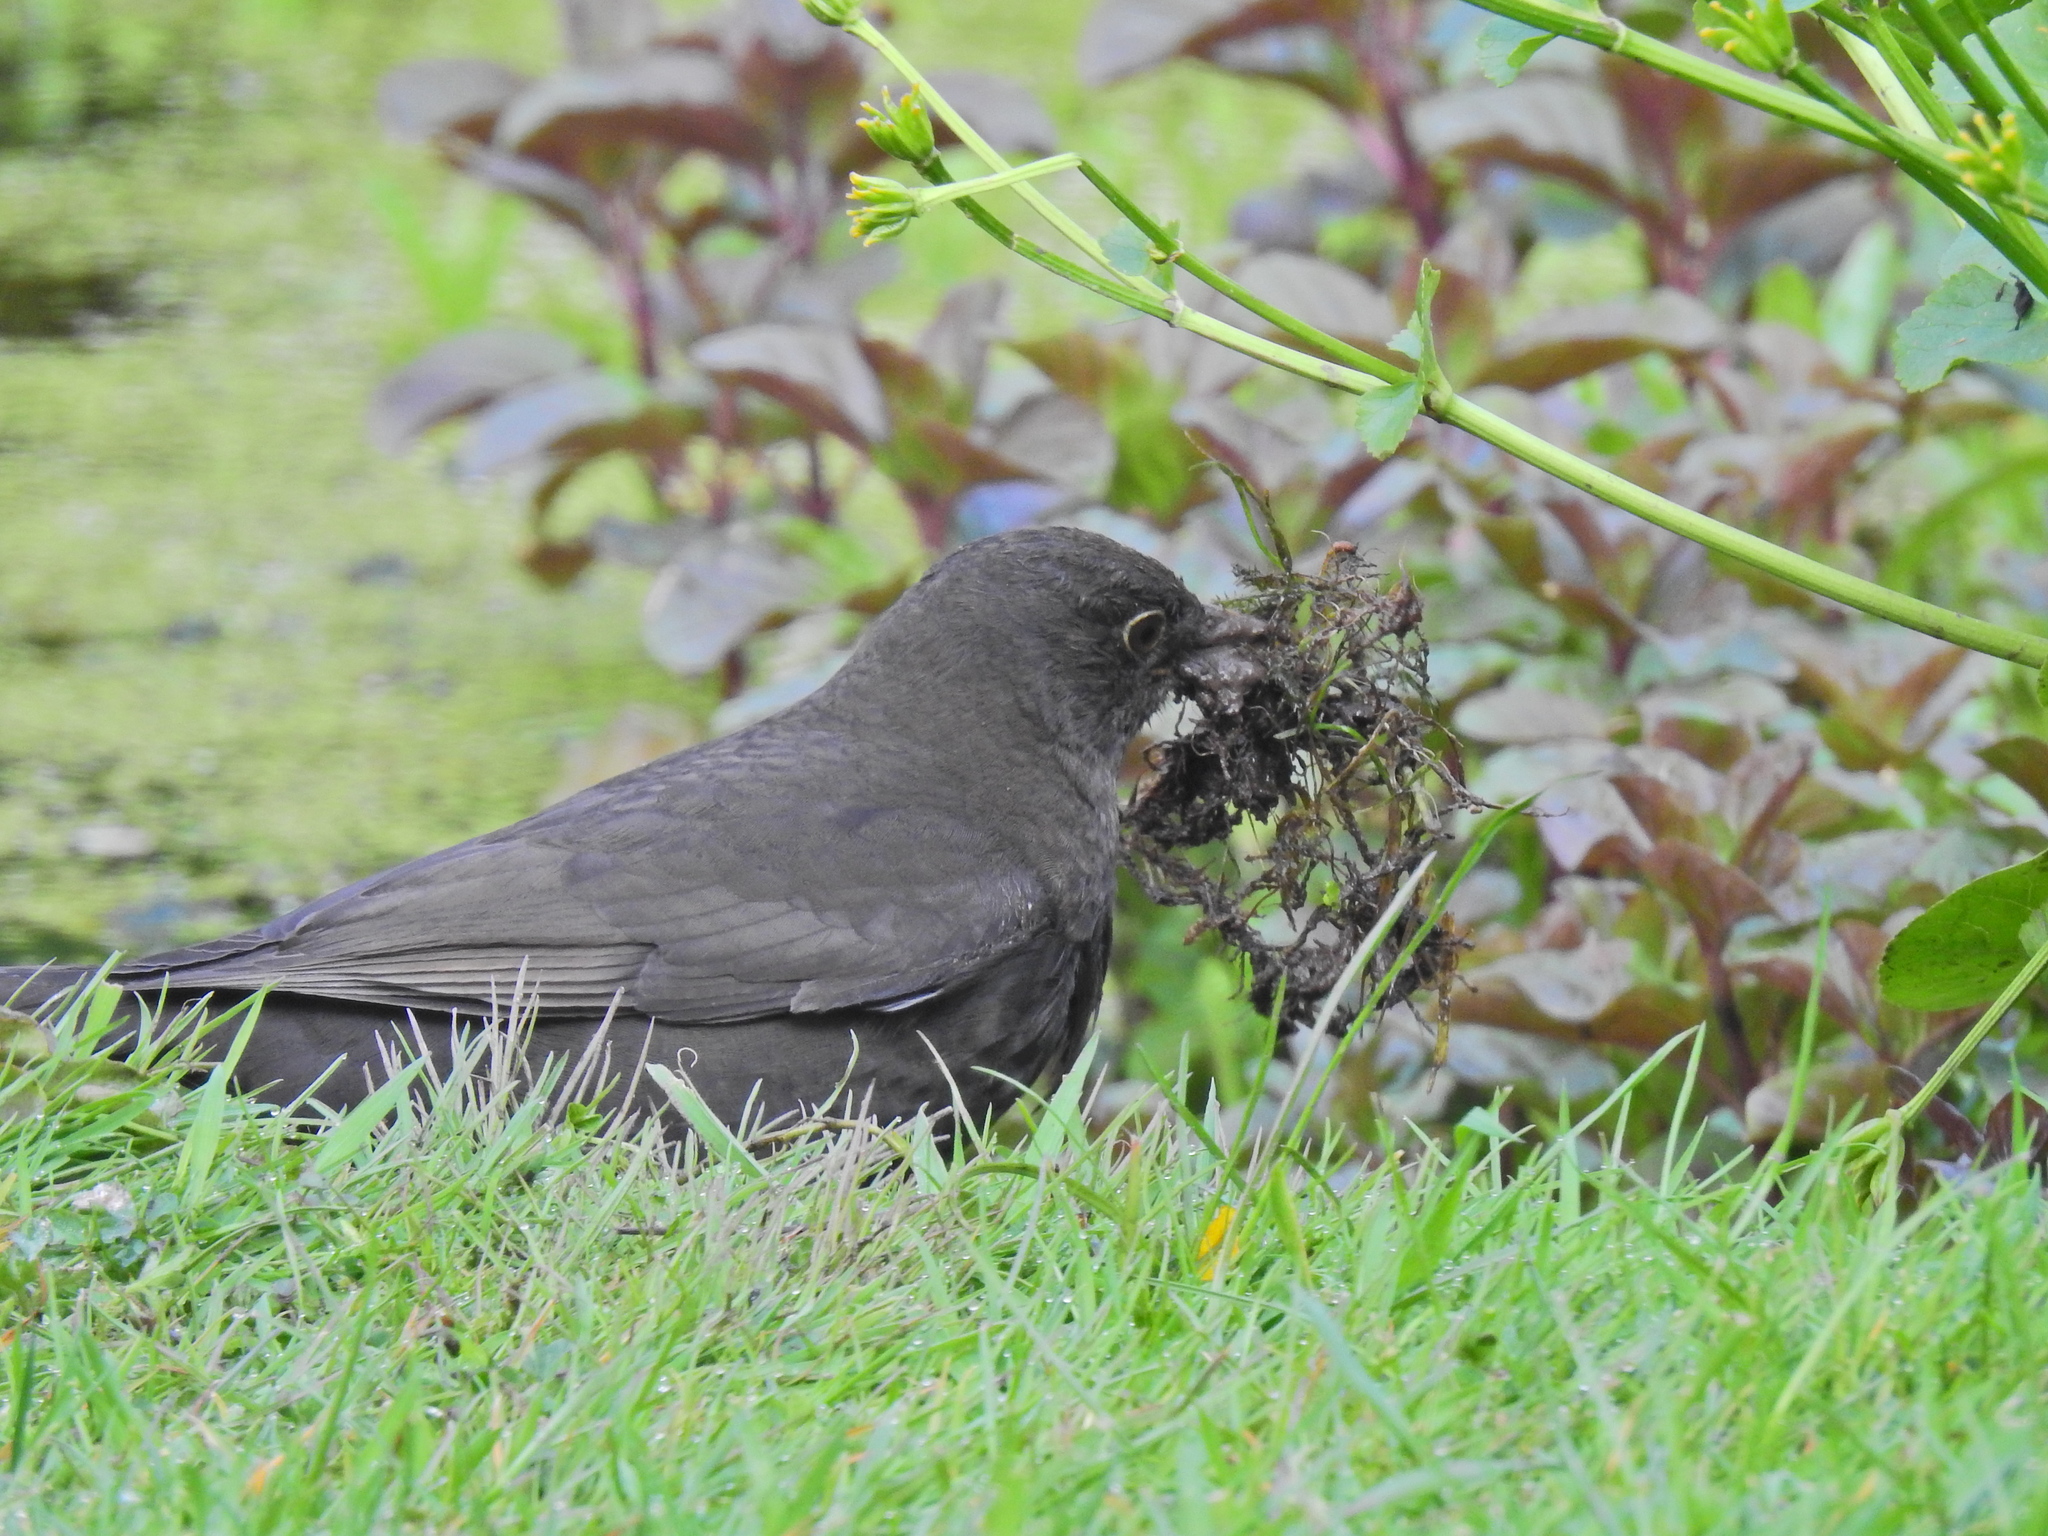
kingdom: Animalia
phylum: Chordata
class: Aves
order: Passeriformes
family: Turdidae
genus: Turdus
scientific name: Turdus merula
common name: Common blackbird
